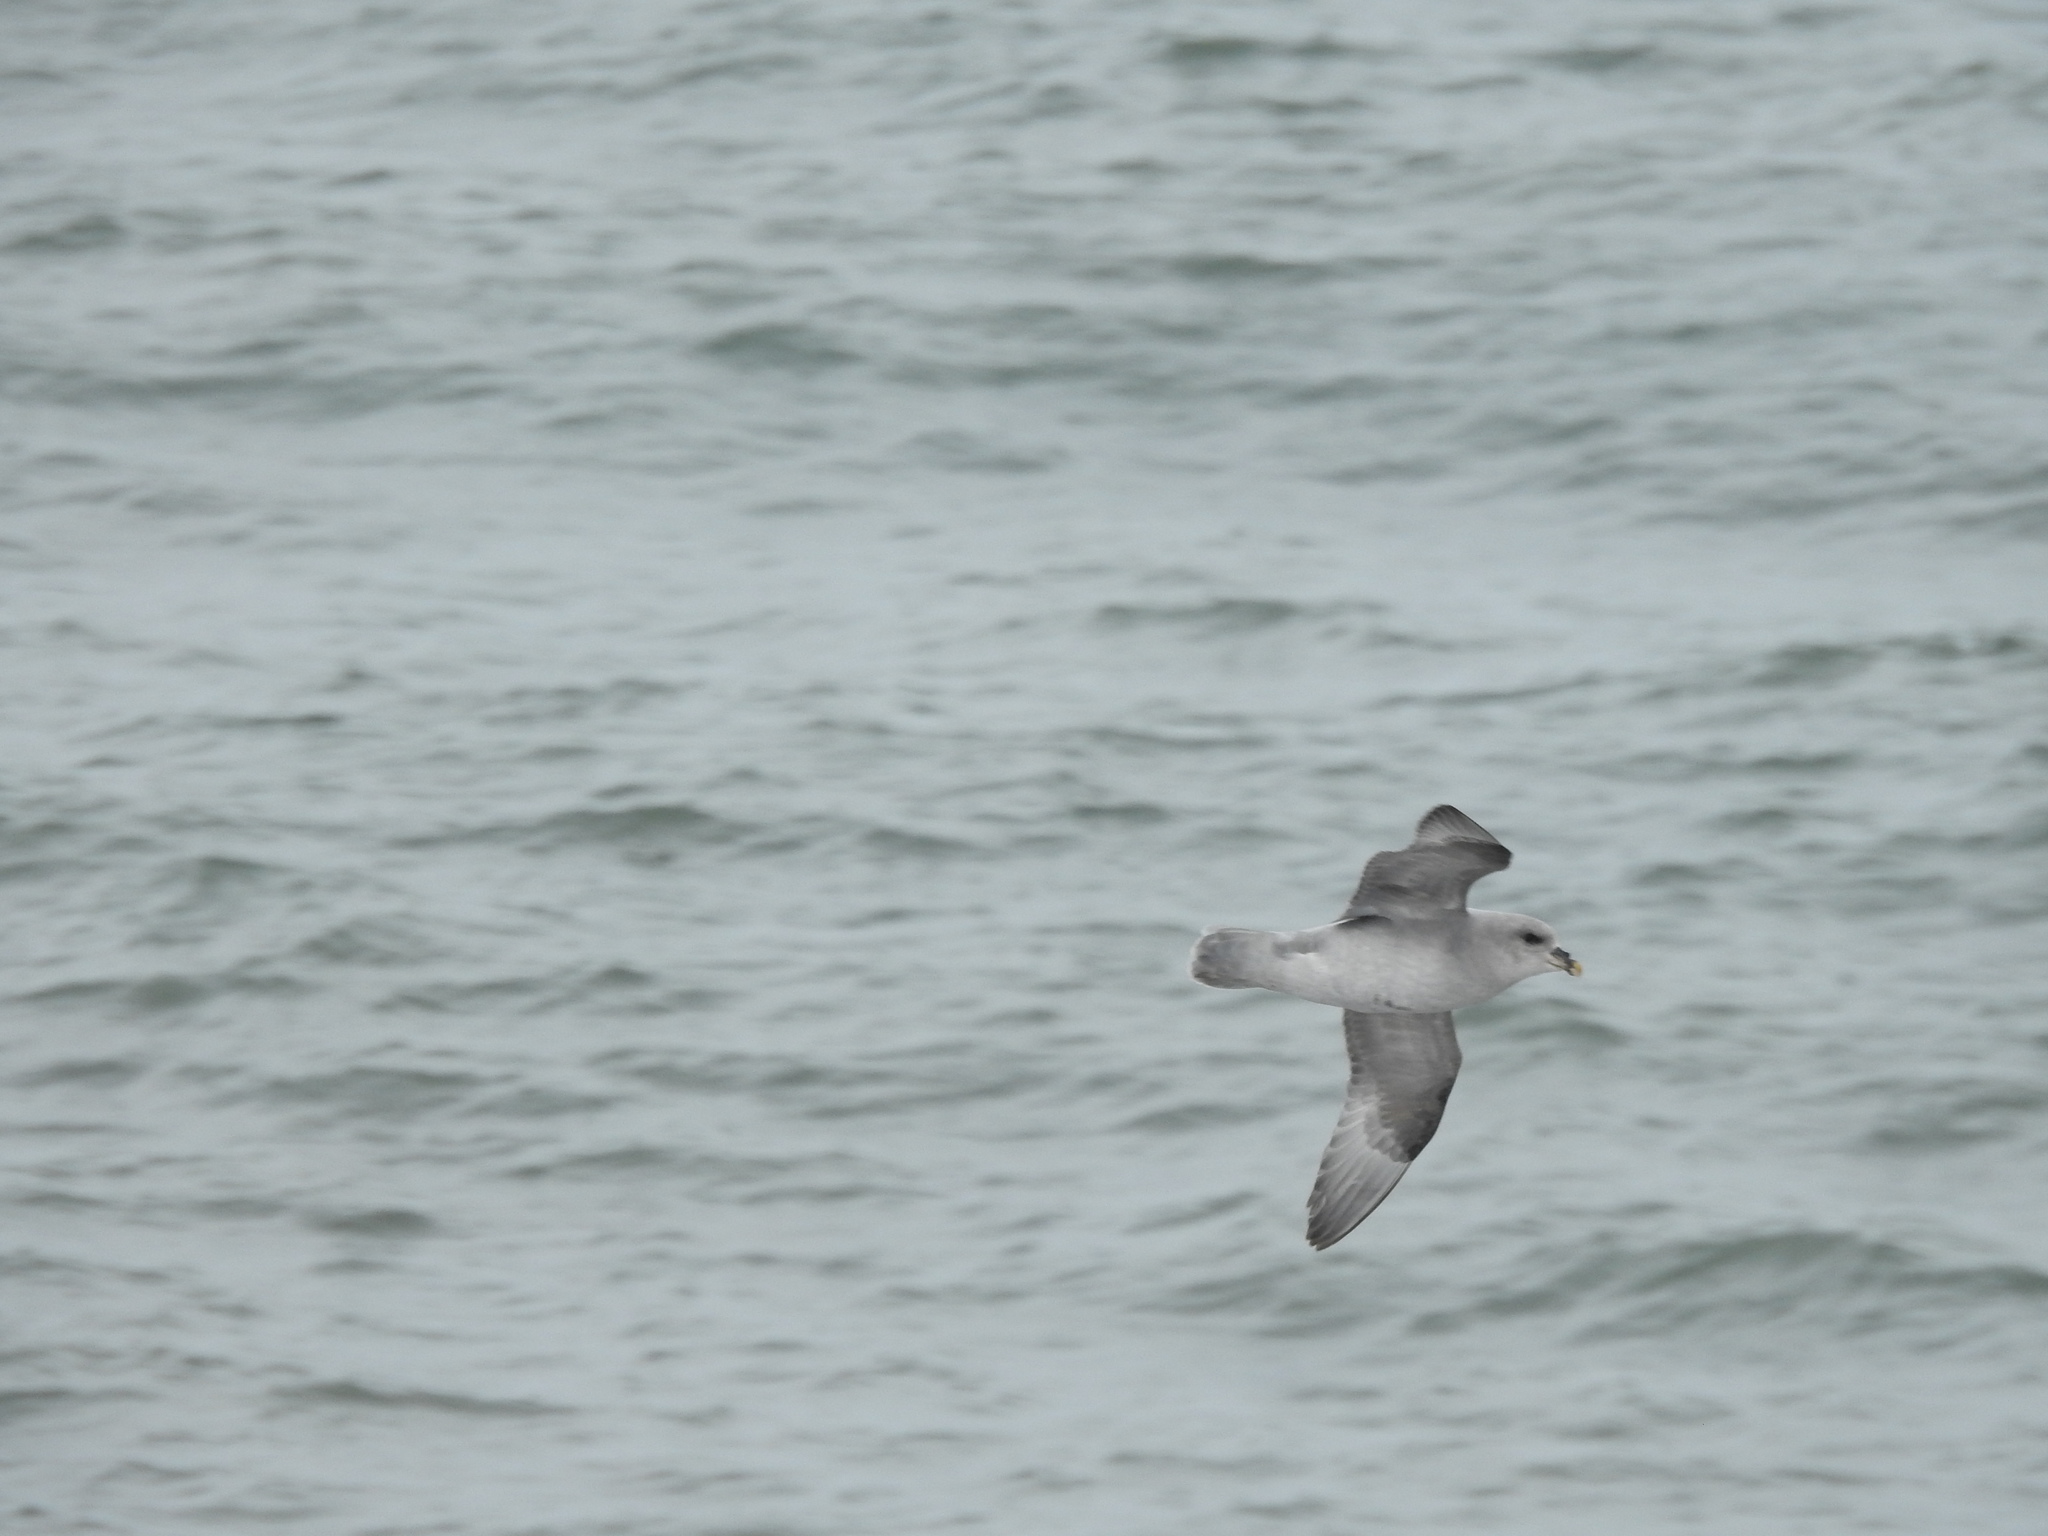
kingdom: Animalia
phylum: Chordata
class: Aves
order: Procellariiformes
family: Procellariidae
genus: Fulmarus
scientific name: Fulmarus glacialis
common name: Northern fulmar
